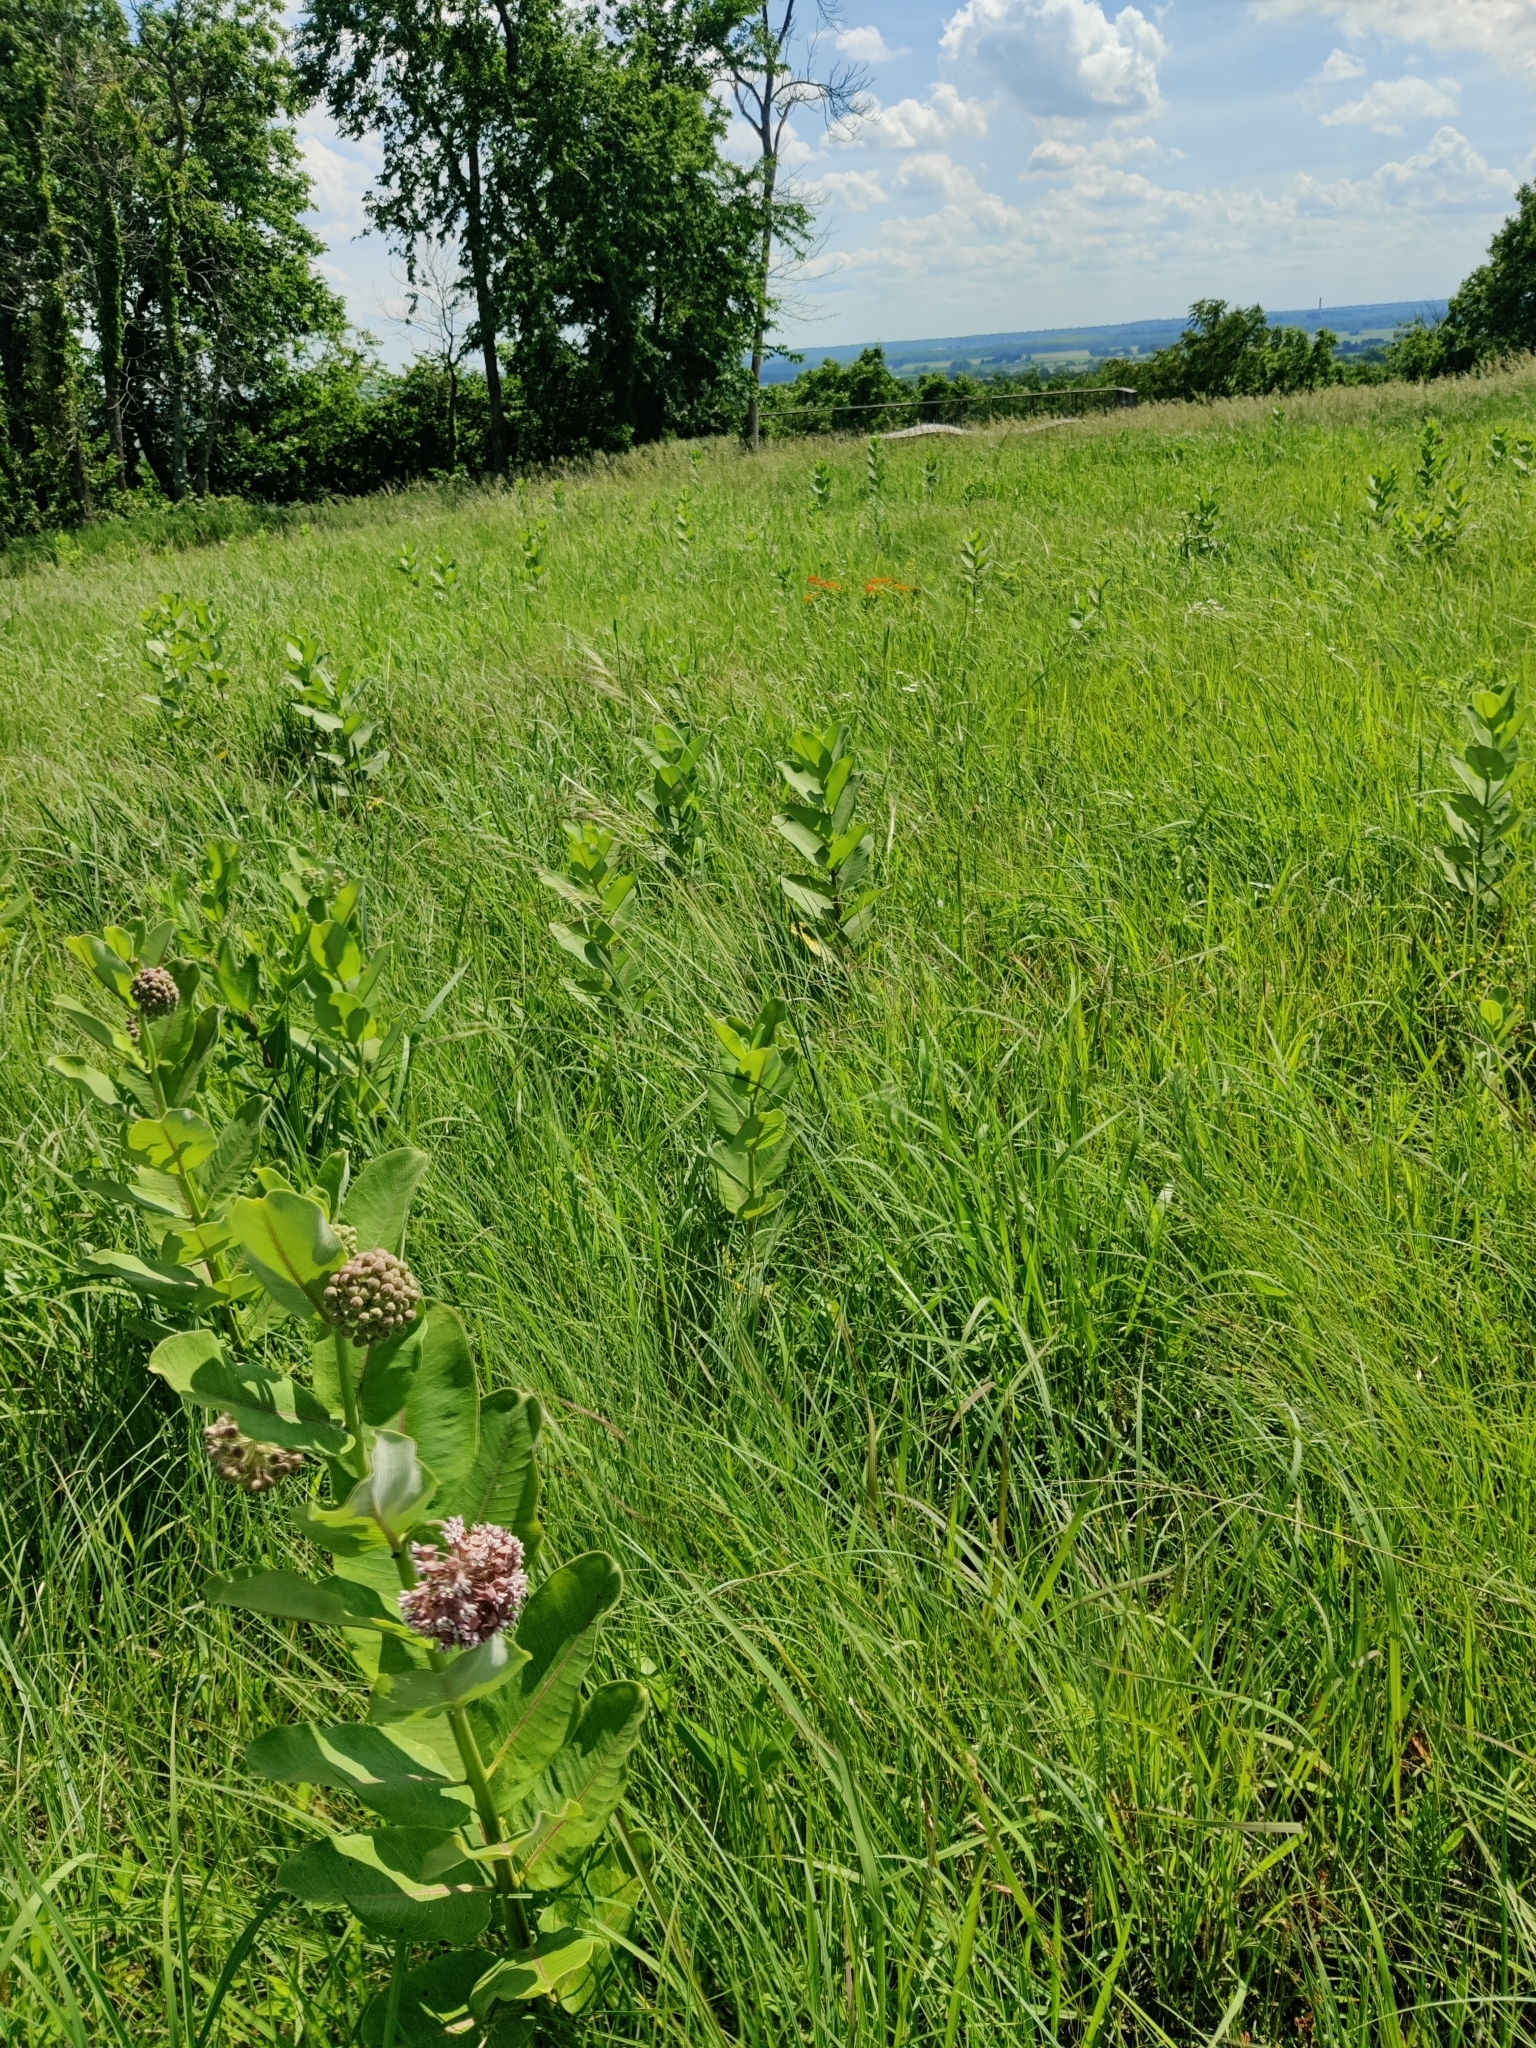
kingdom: Plantae
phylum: Tracheophyta
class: Magnoliopsida
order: Gentianales
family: Apocynaceae
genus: Asclepias
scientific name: Asclepias syriaca
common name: Common milkweed
